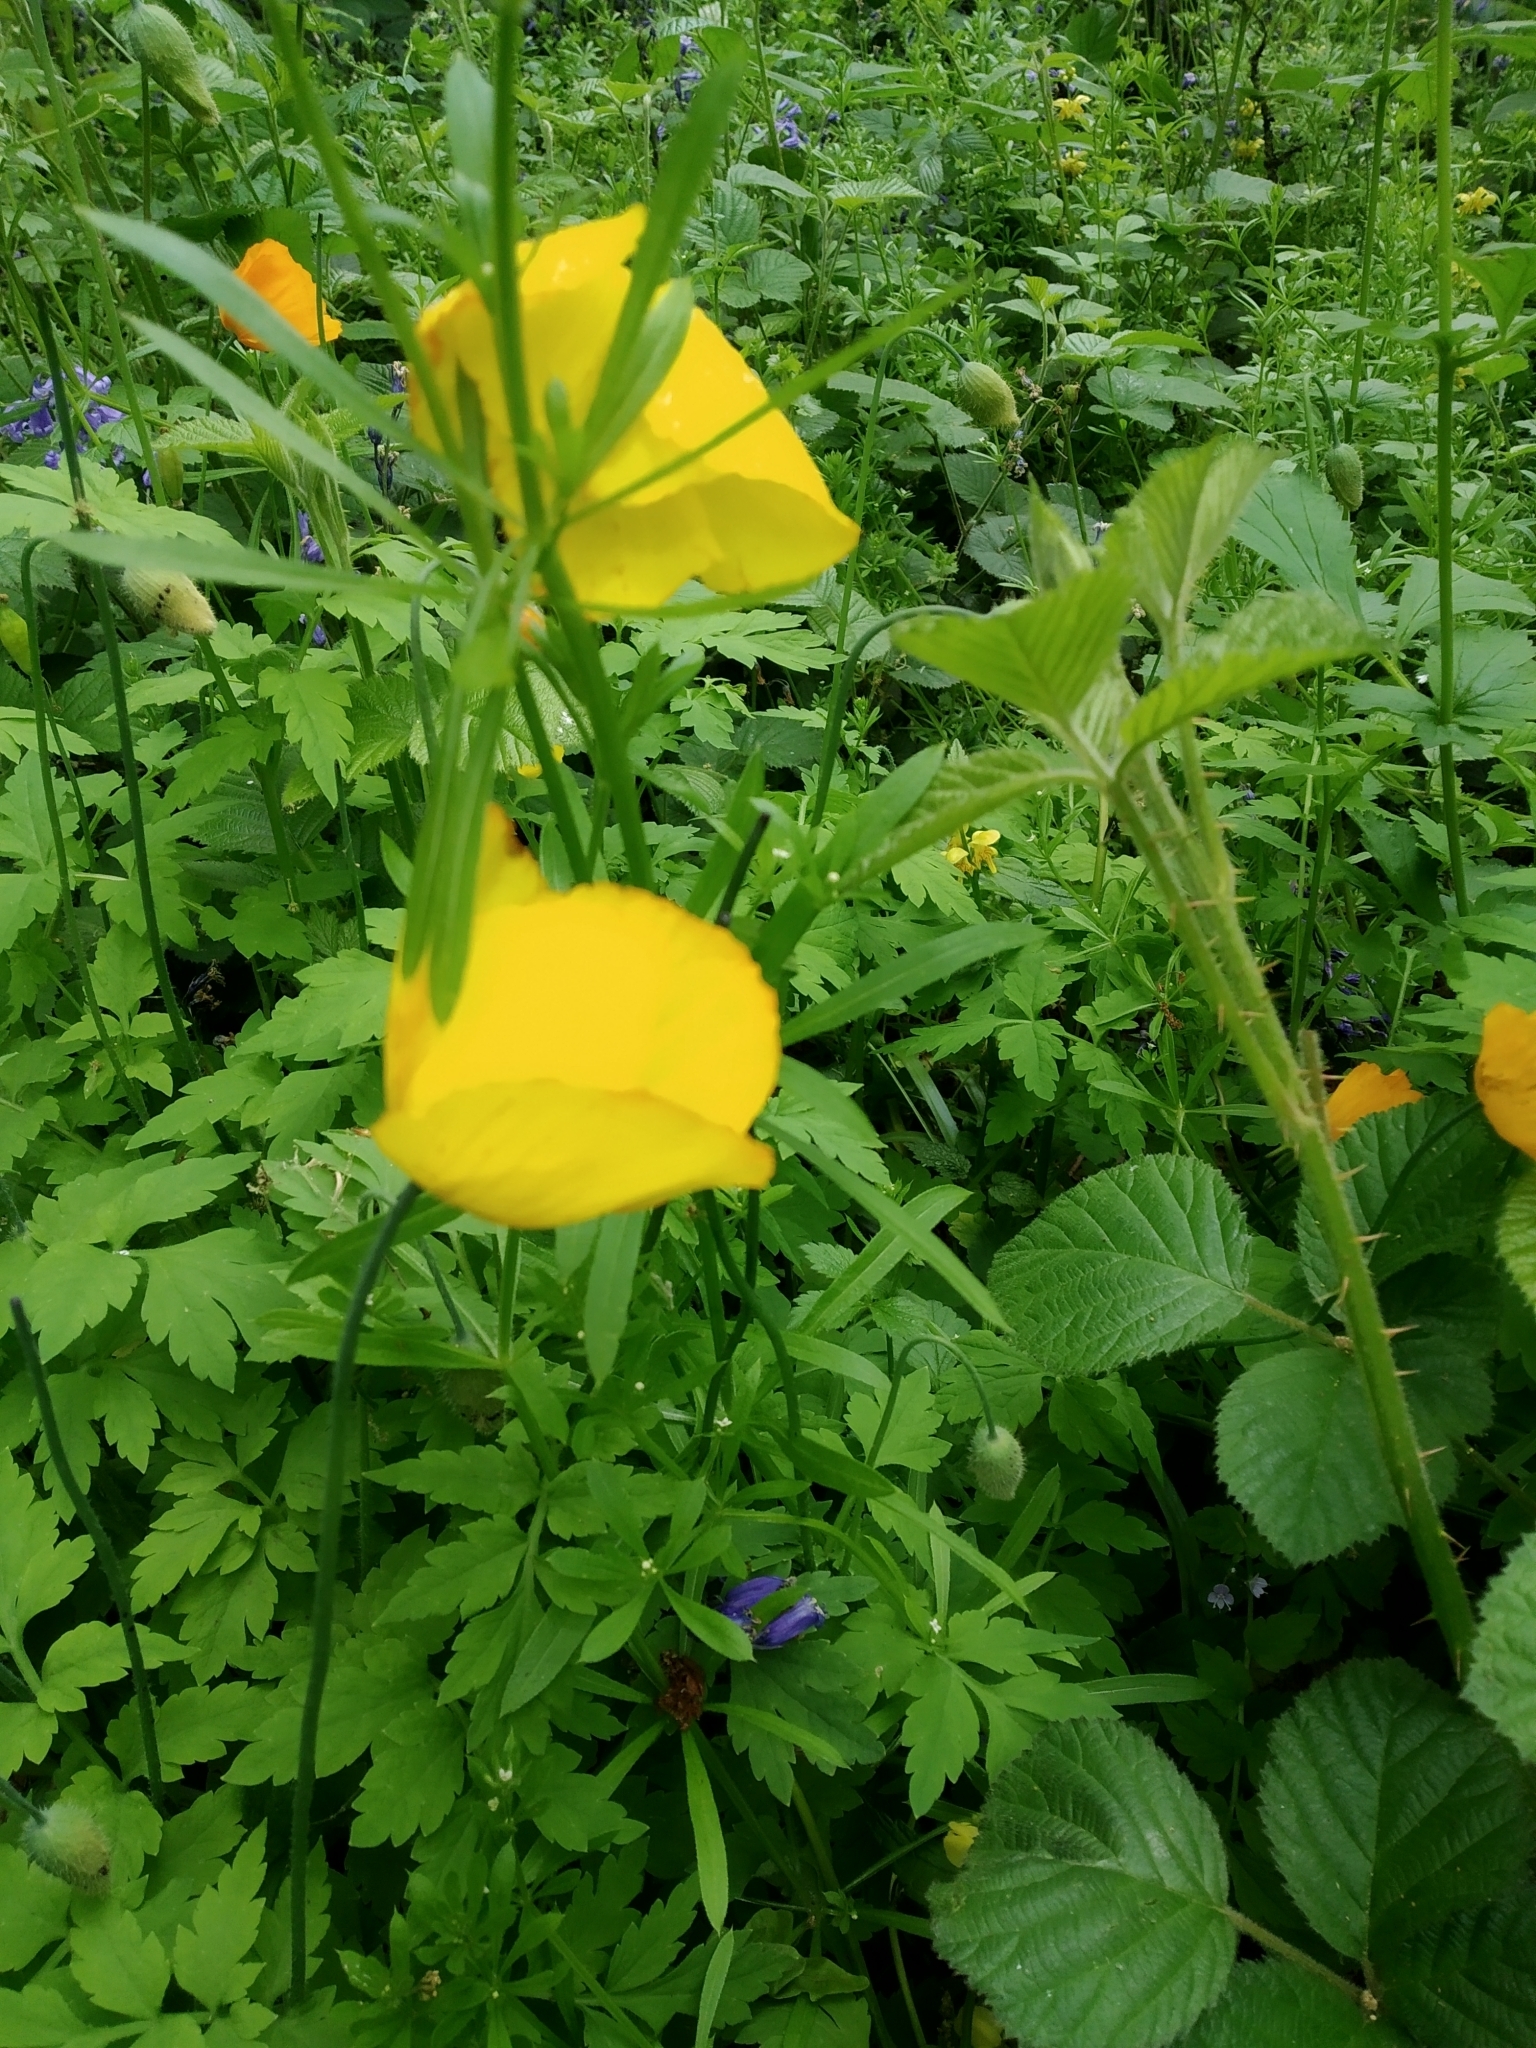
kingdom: Plantae
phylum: Tracheophyta
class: Magnoliopsida
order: Ranunculales
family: Papaveraceae
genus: Papaver
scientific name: Papaver cambricum
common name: Poppy
